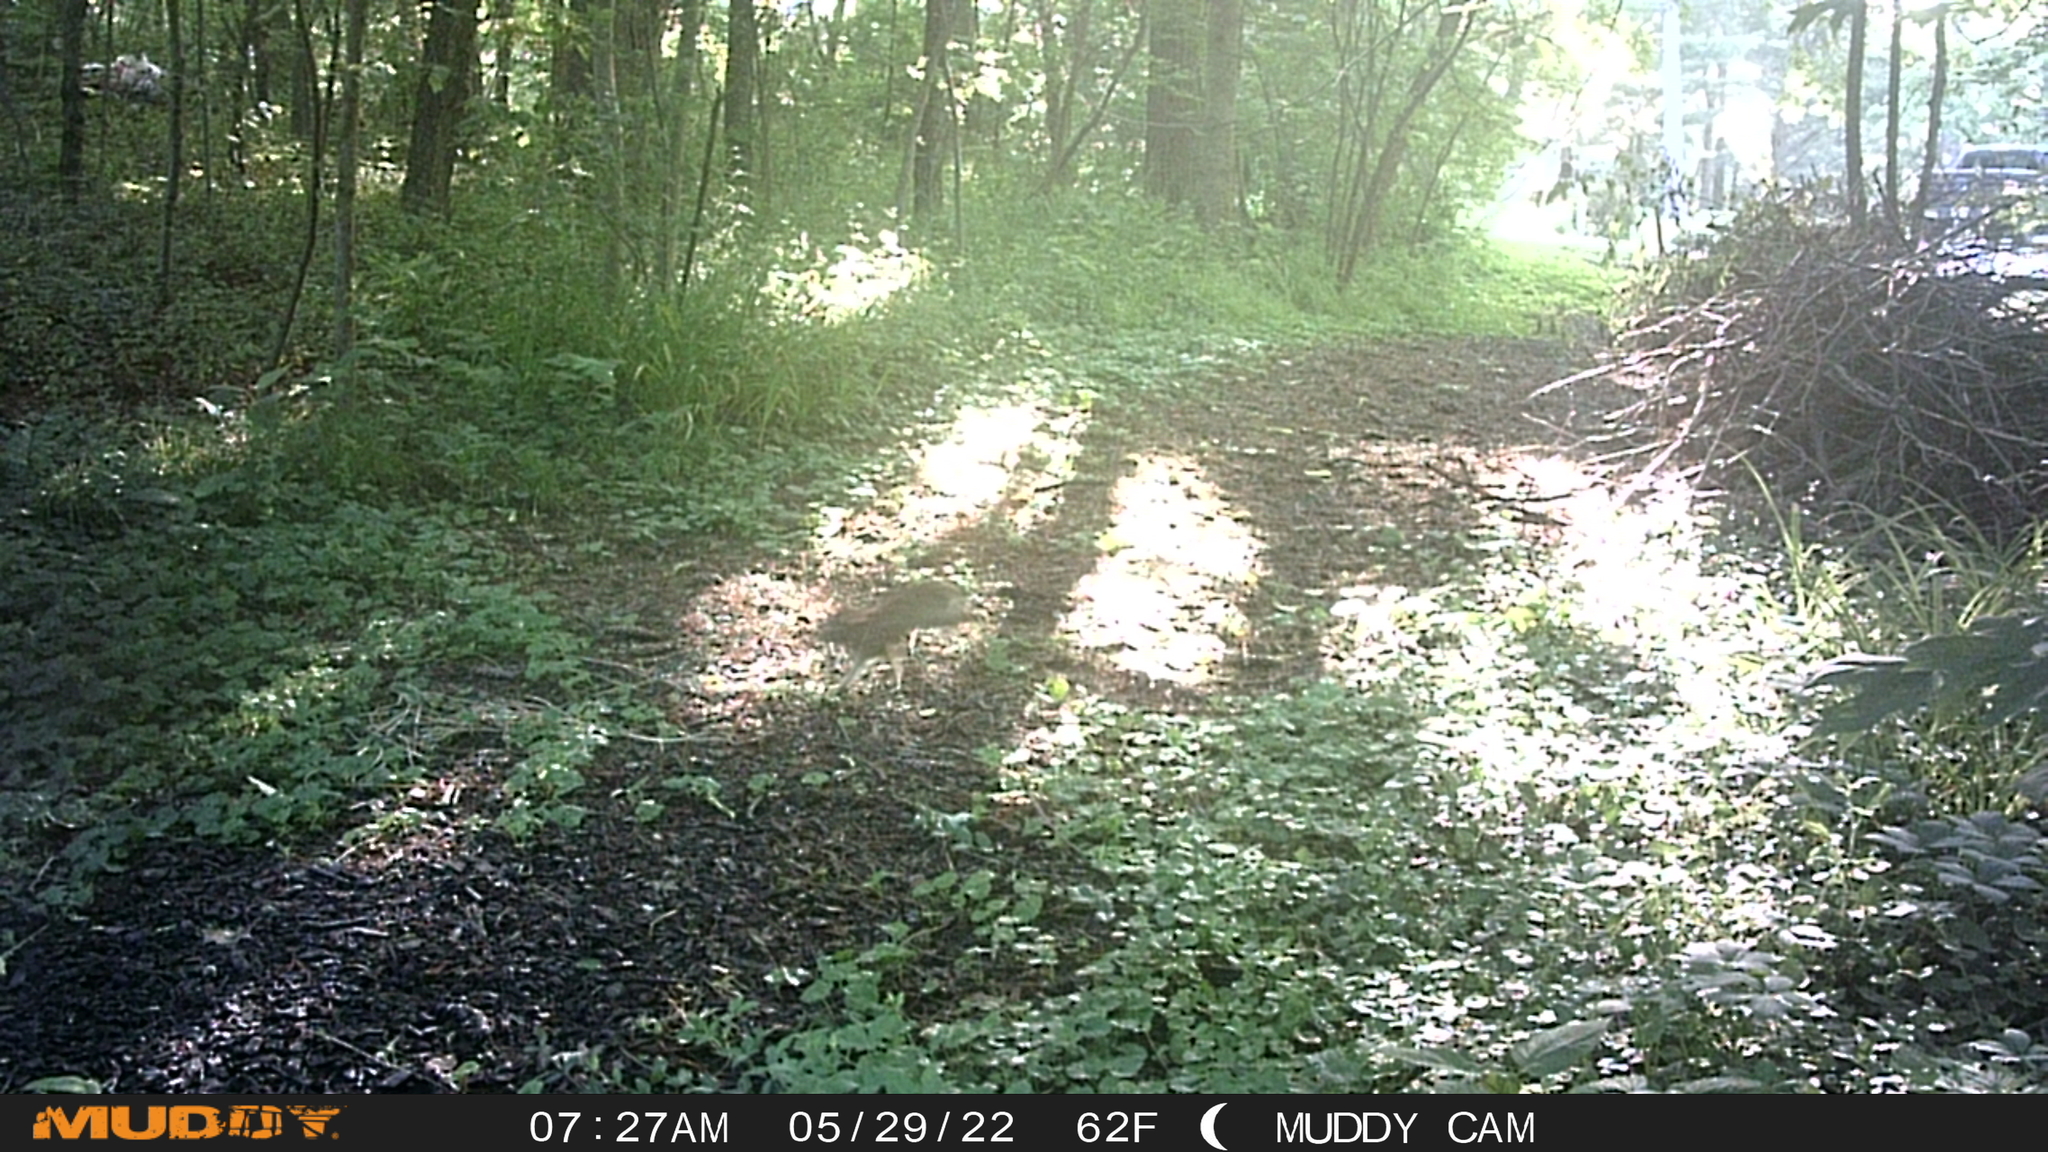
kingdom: Animalia
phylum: Chordata
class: Mammalia
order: Lagomorpha
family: Leporidae
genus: Sylvilagus
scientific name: Sylvilagus floridanus
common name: Eastern cottontail
